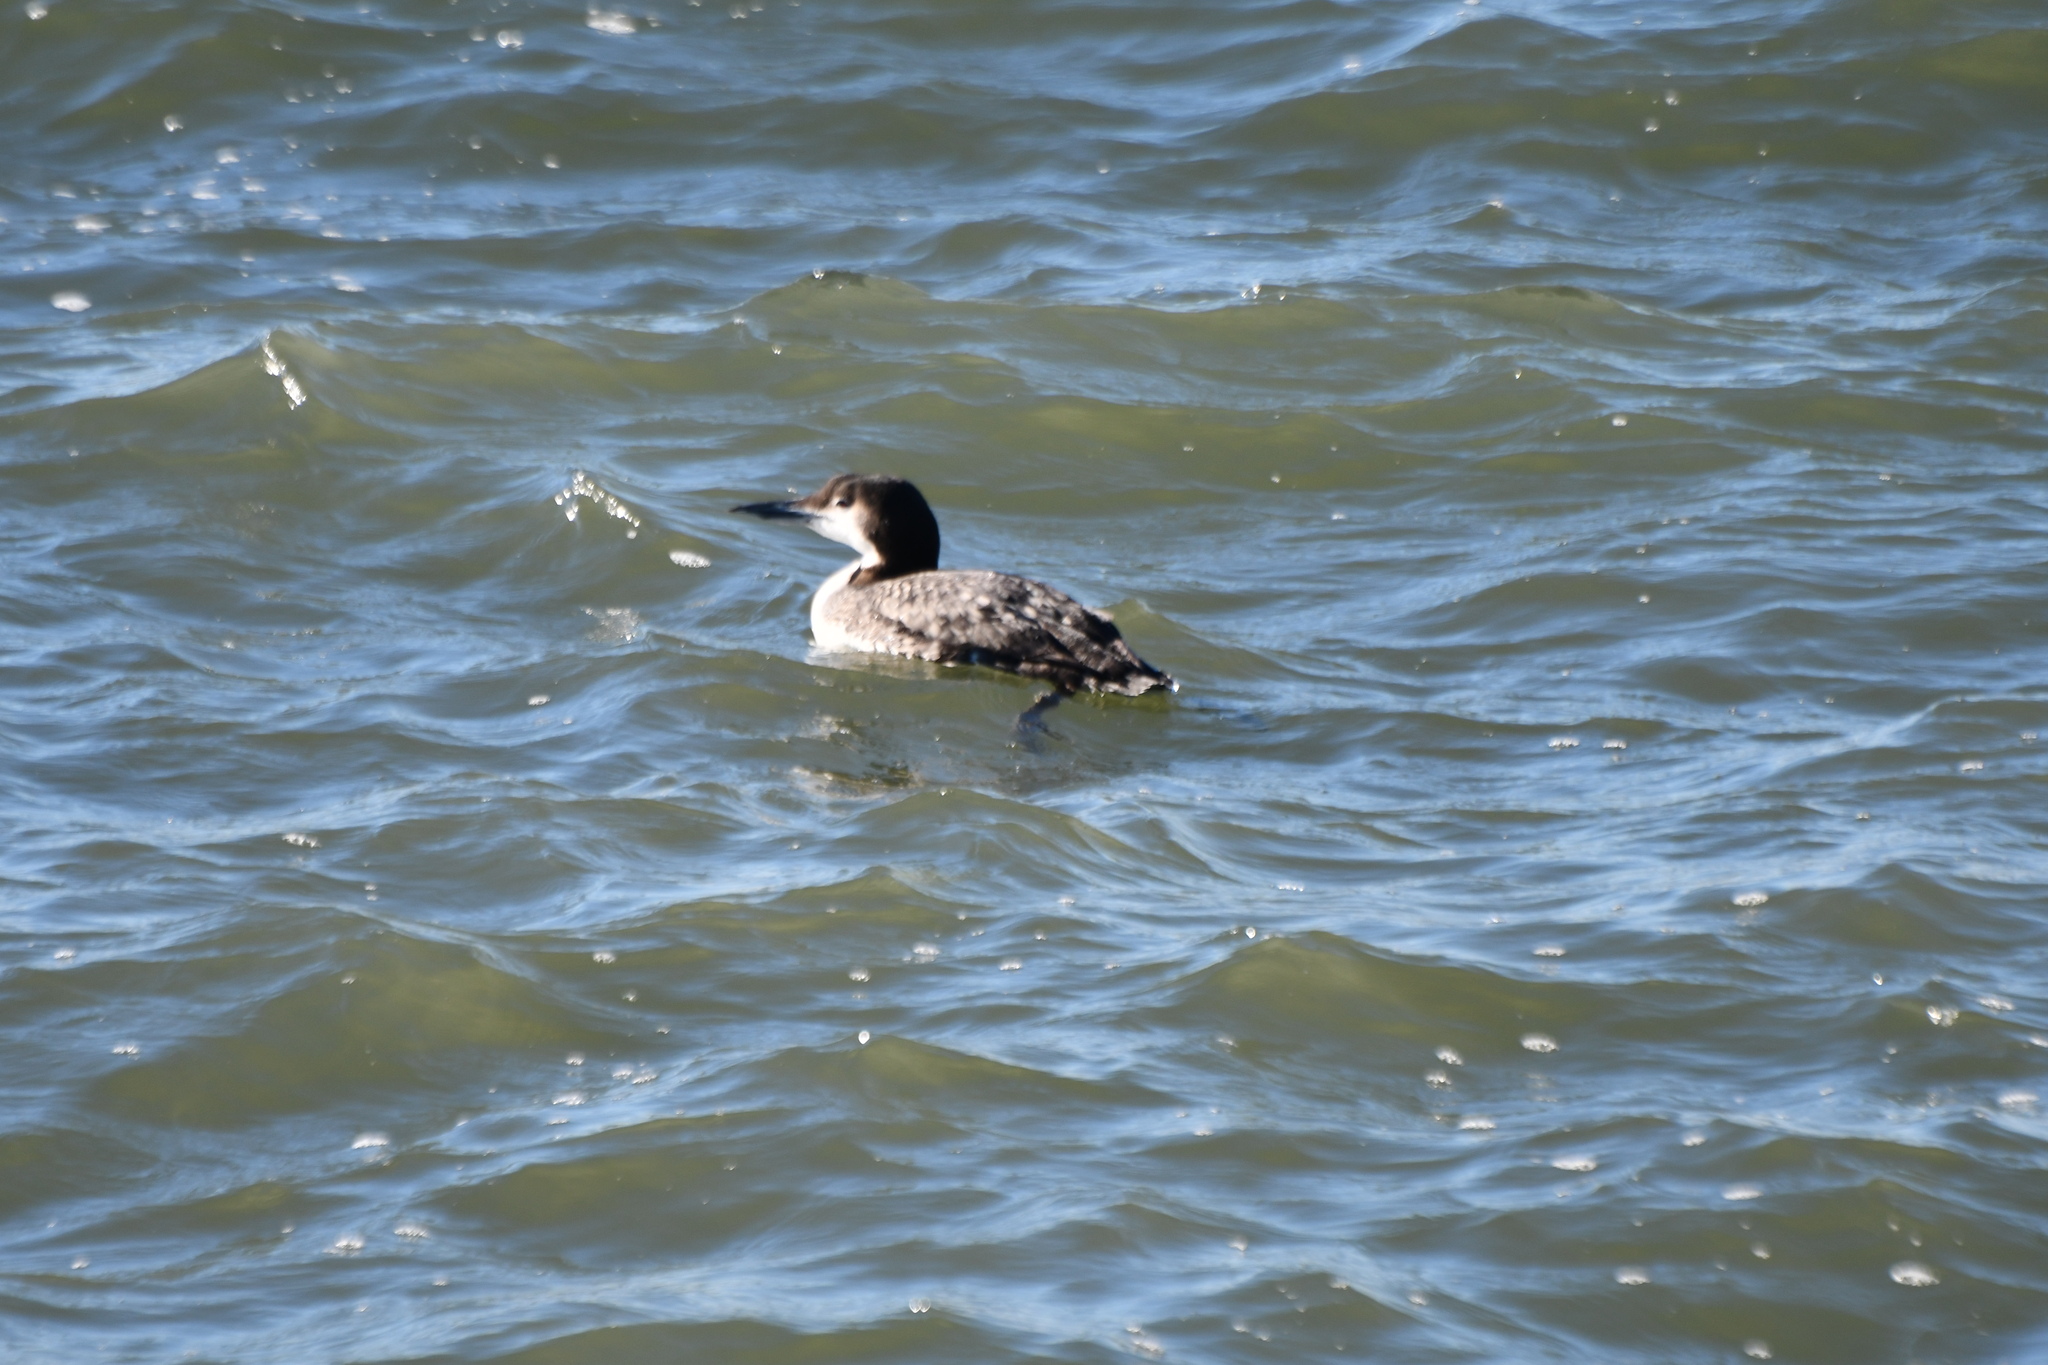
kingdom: Animalia
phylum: Chordata
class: Aves
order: Gaviiformes
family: Gaviidae
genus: Gavia
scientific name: Gavia immer
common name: Common loon
